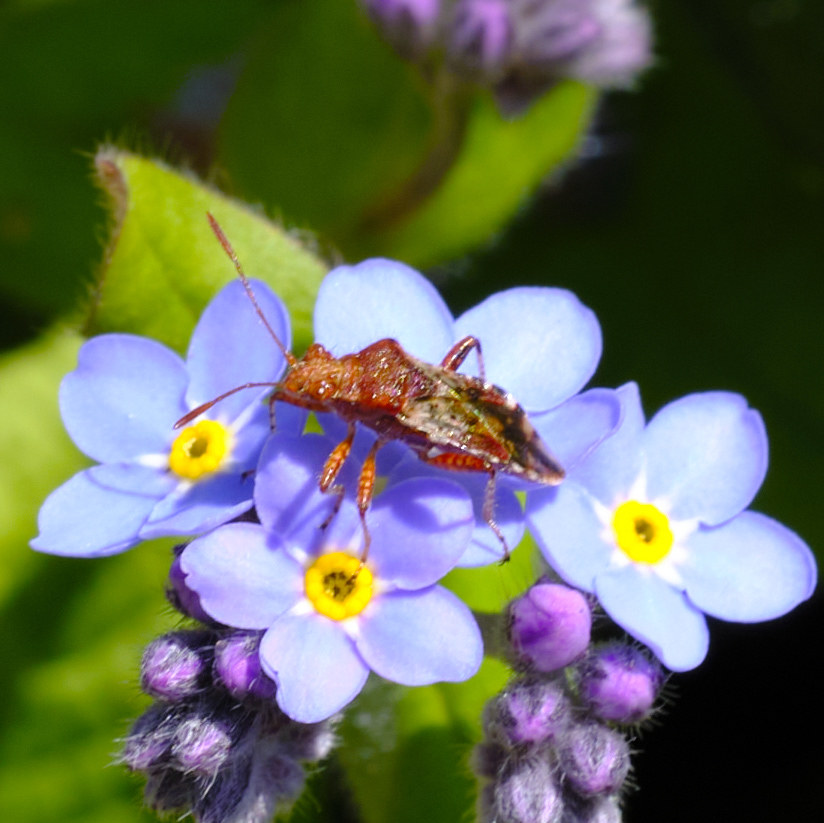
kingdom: Animalia
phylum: Arthropoda
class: Insecta
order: Hemiptera
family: Rhopalidae
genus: Rhopalus
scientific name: Rhopalus subrufus
